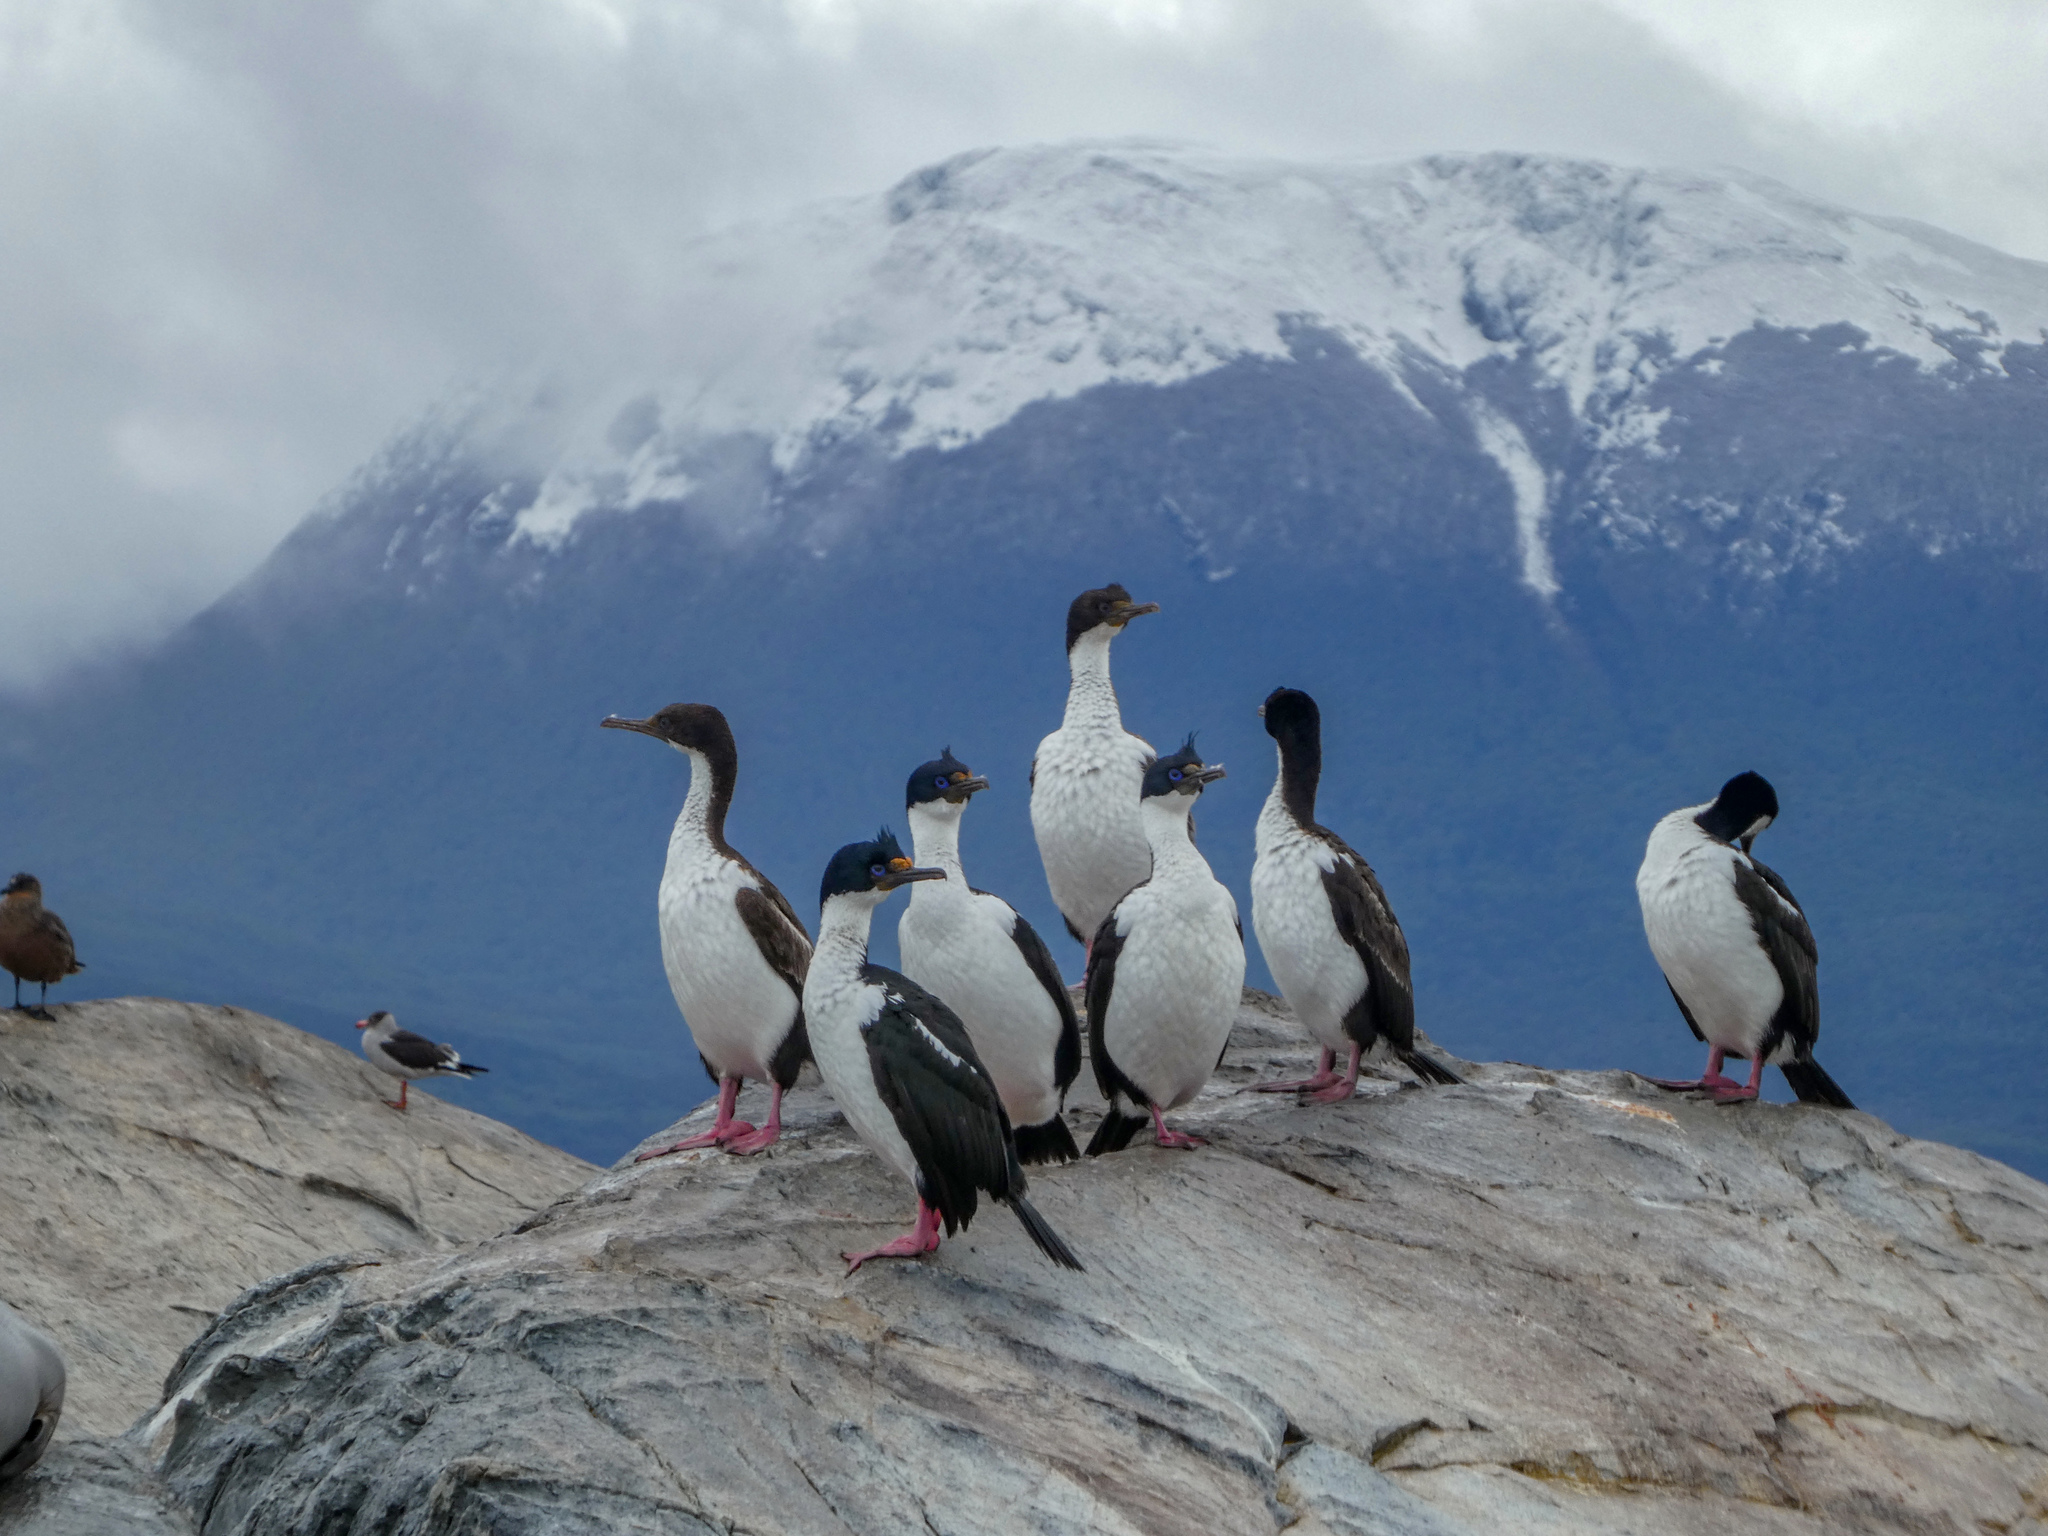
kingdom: Animalia
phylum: Chordata
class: Aves
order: Suliformes
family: Phalacrocoracidae
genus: Leucocarbo
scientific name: Leucocarbo albiventer
